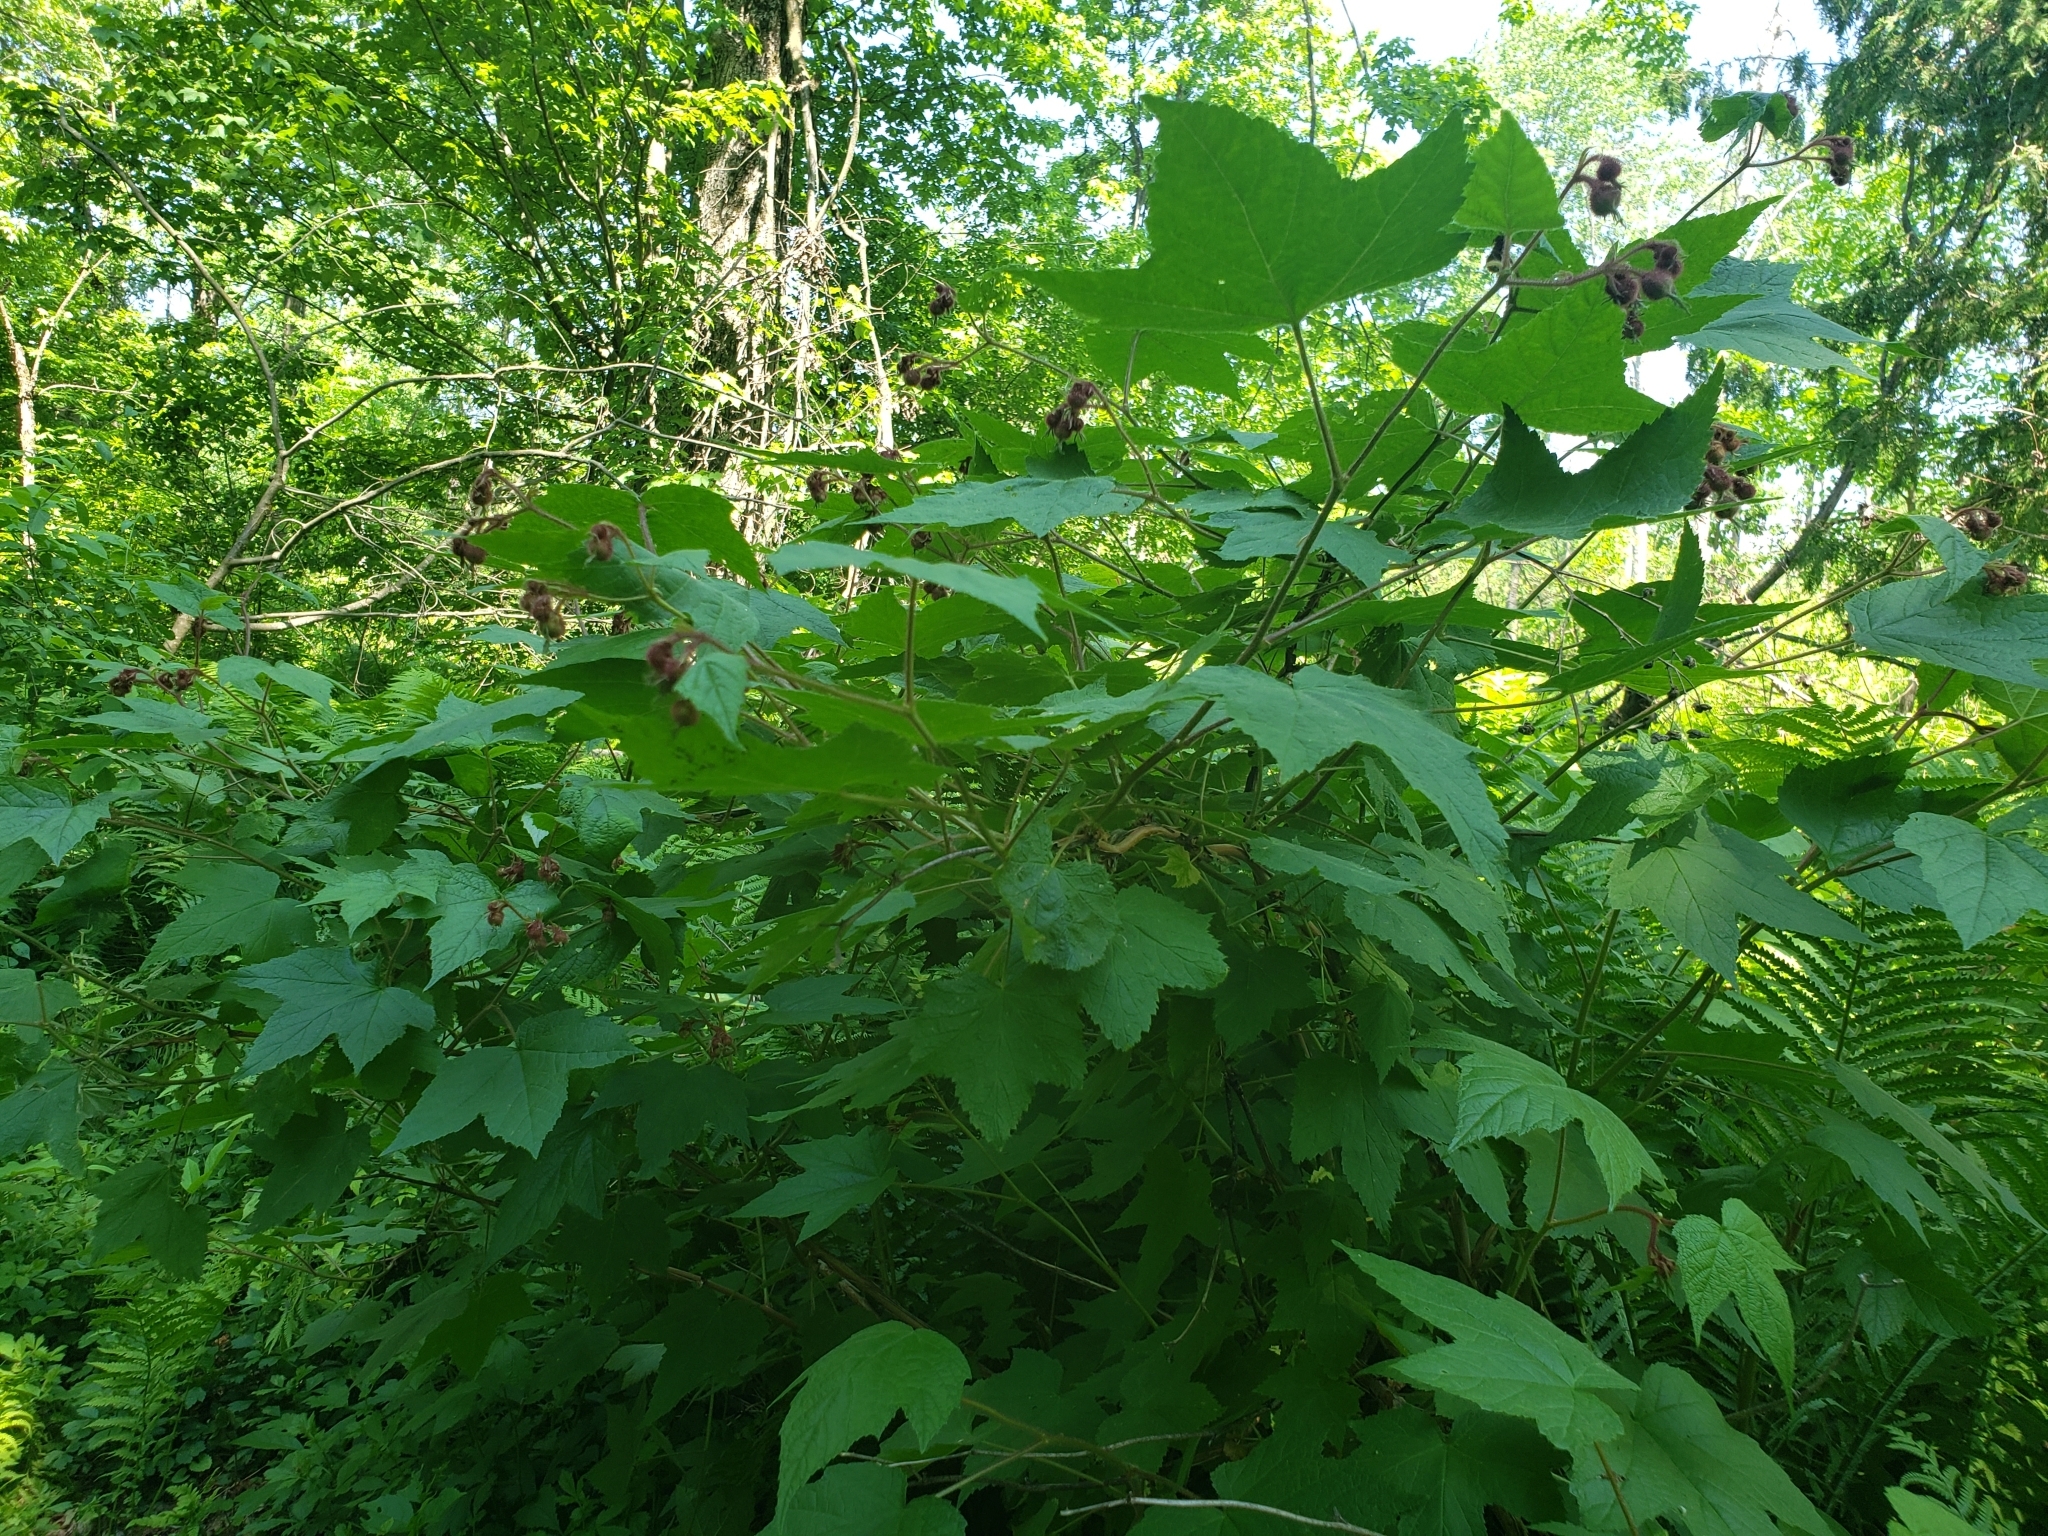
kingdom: Plantae
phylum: Tracheophyta
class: Magnoliopsida
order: Rosales
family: Rosaceae
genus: Rubus
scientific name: Rubus odoratus
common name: Purple-flowered raspberry
